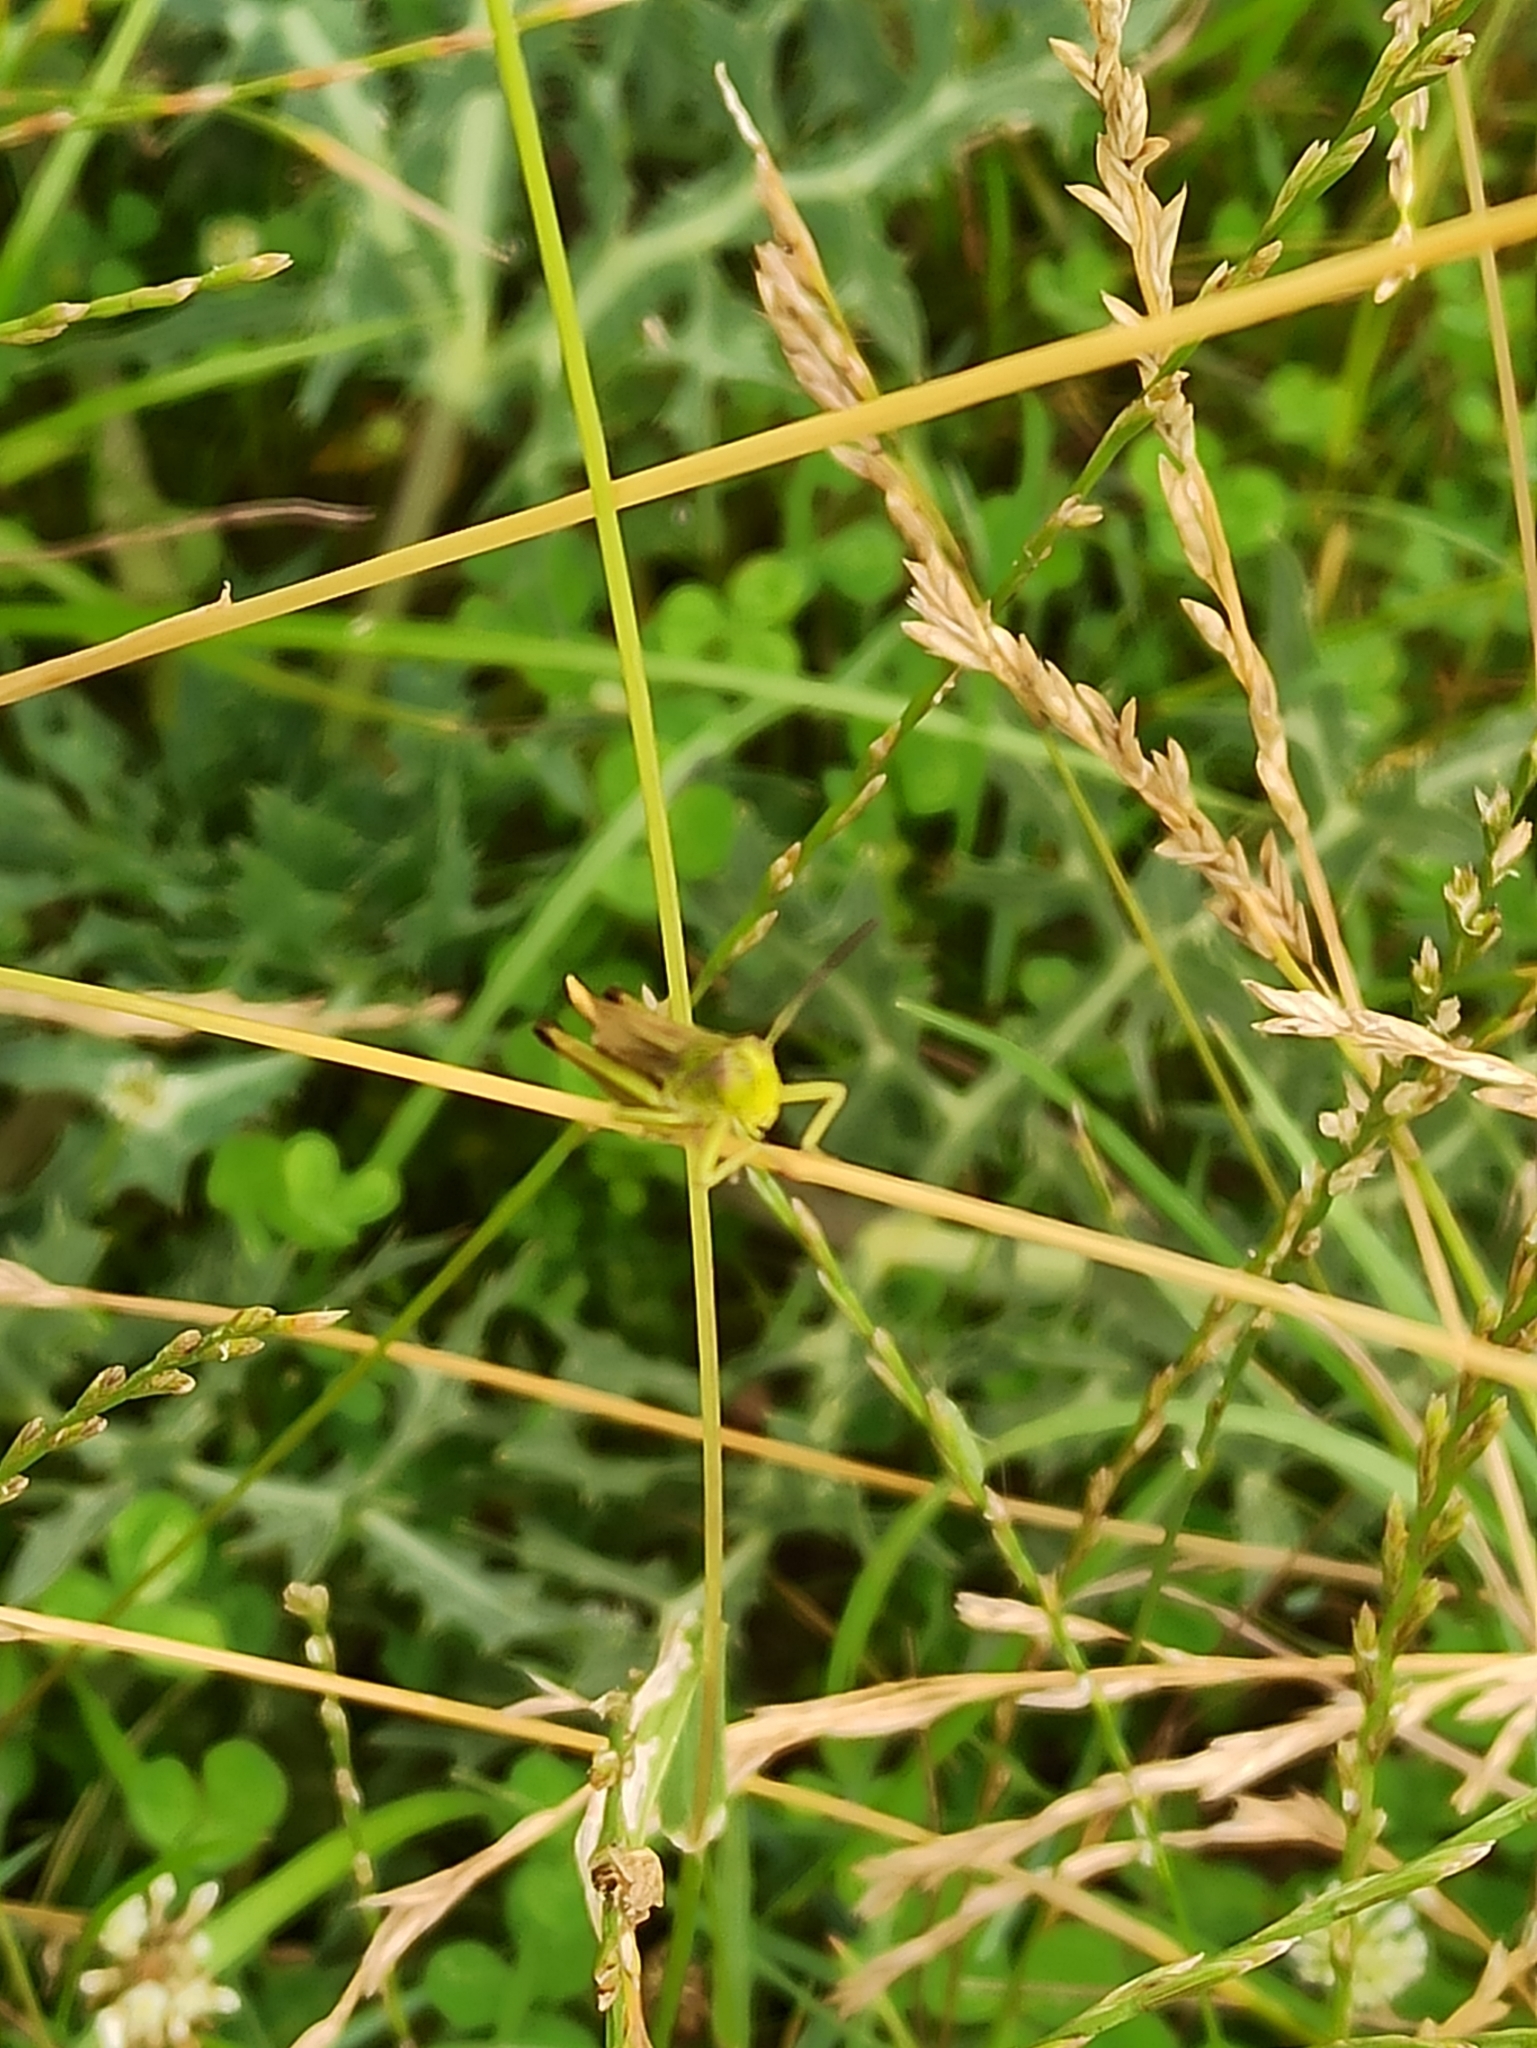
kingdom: Animalia
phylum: Arthropoda
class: Insecta
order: Orthoptera
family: Acrididae
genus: Pseudochorthippus
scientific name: Pseudochorthippus parallelus
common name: Meadow grasshopper
